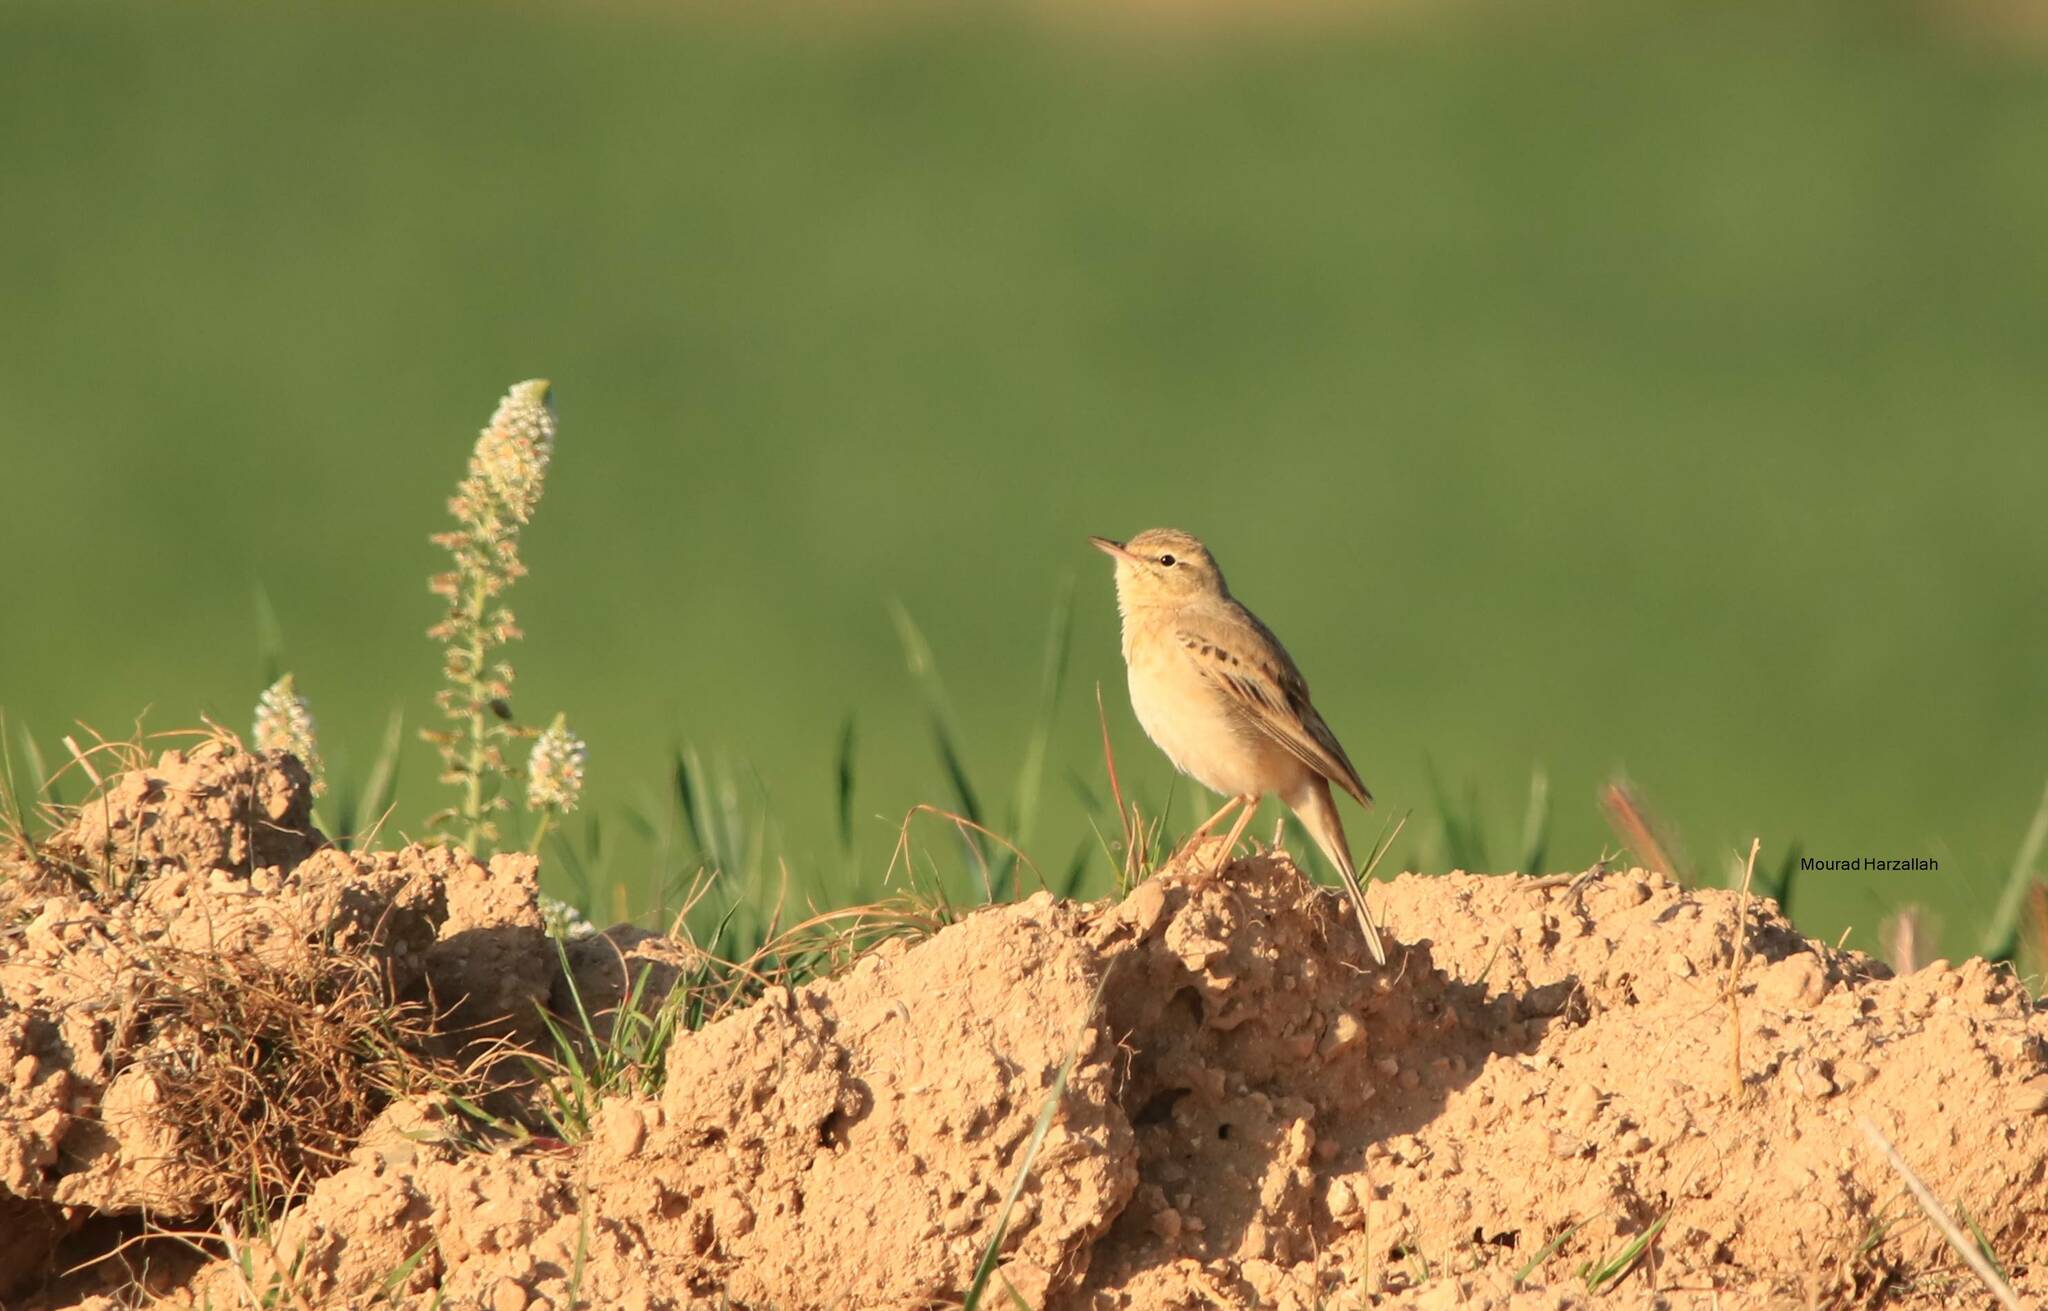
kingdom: Animalia
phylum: Chordata
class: Aves
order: Passeriformes
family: Motacillidae
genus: Anthus
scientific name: Anthus campestris
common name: Tawny pipit
